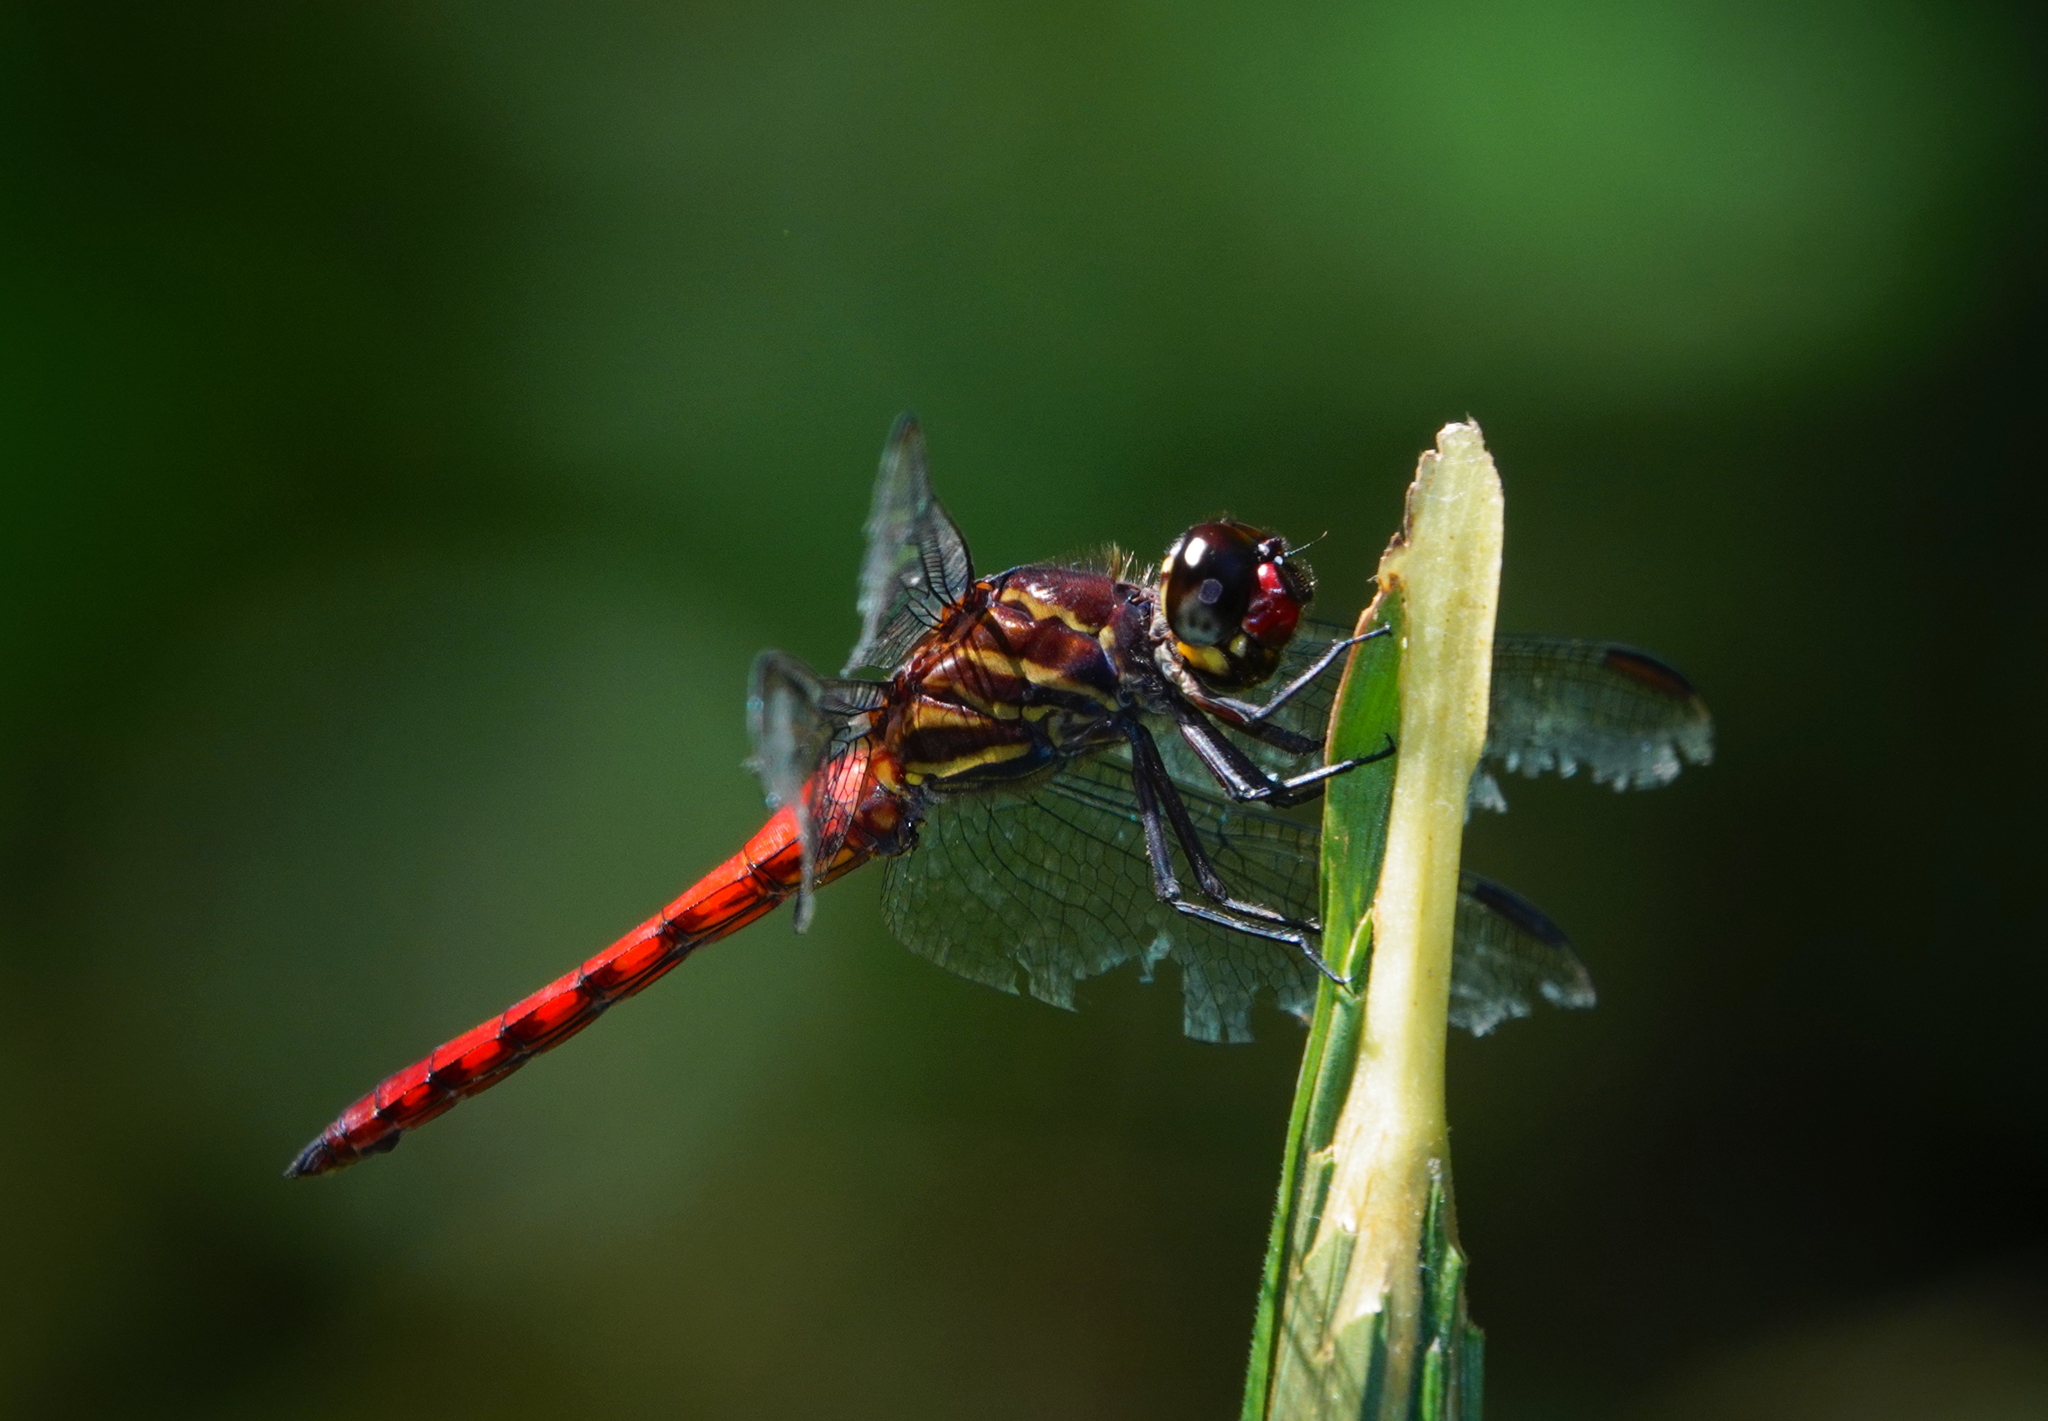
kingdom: Animalia
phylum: Arthropoda
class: Insecta
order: Odonata
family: Libellulidae
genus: Orthemis
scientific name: Orthemis biolleyi
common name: Yellow-lined skimmer
